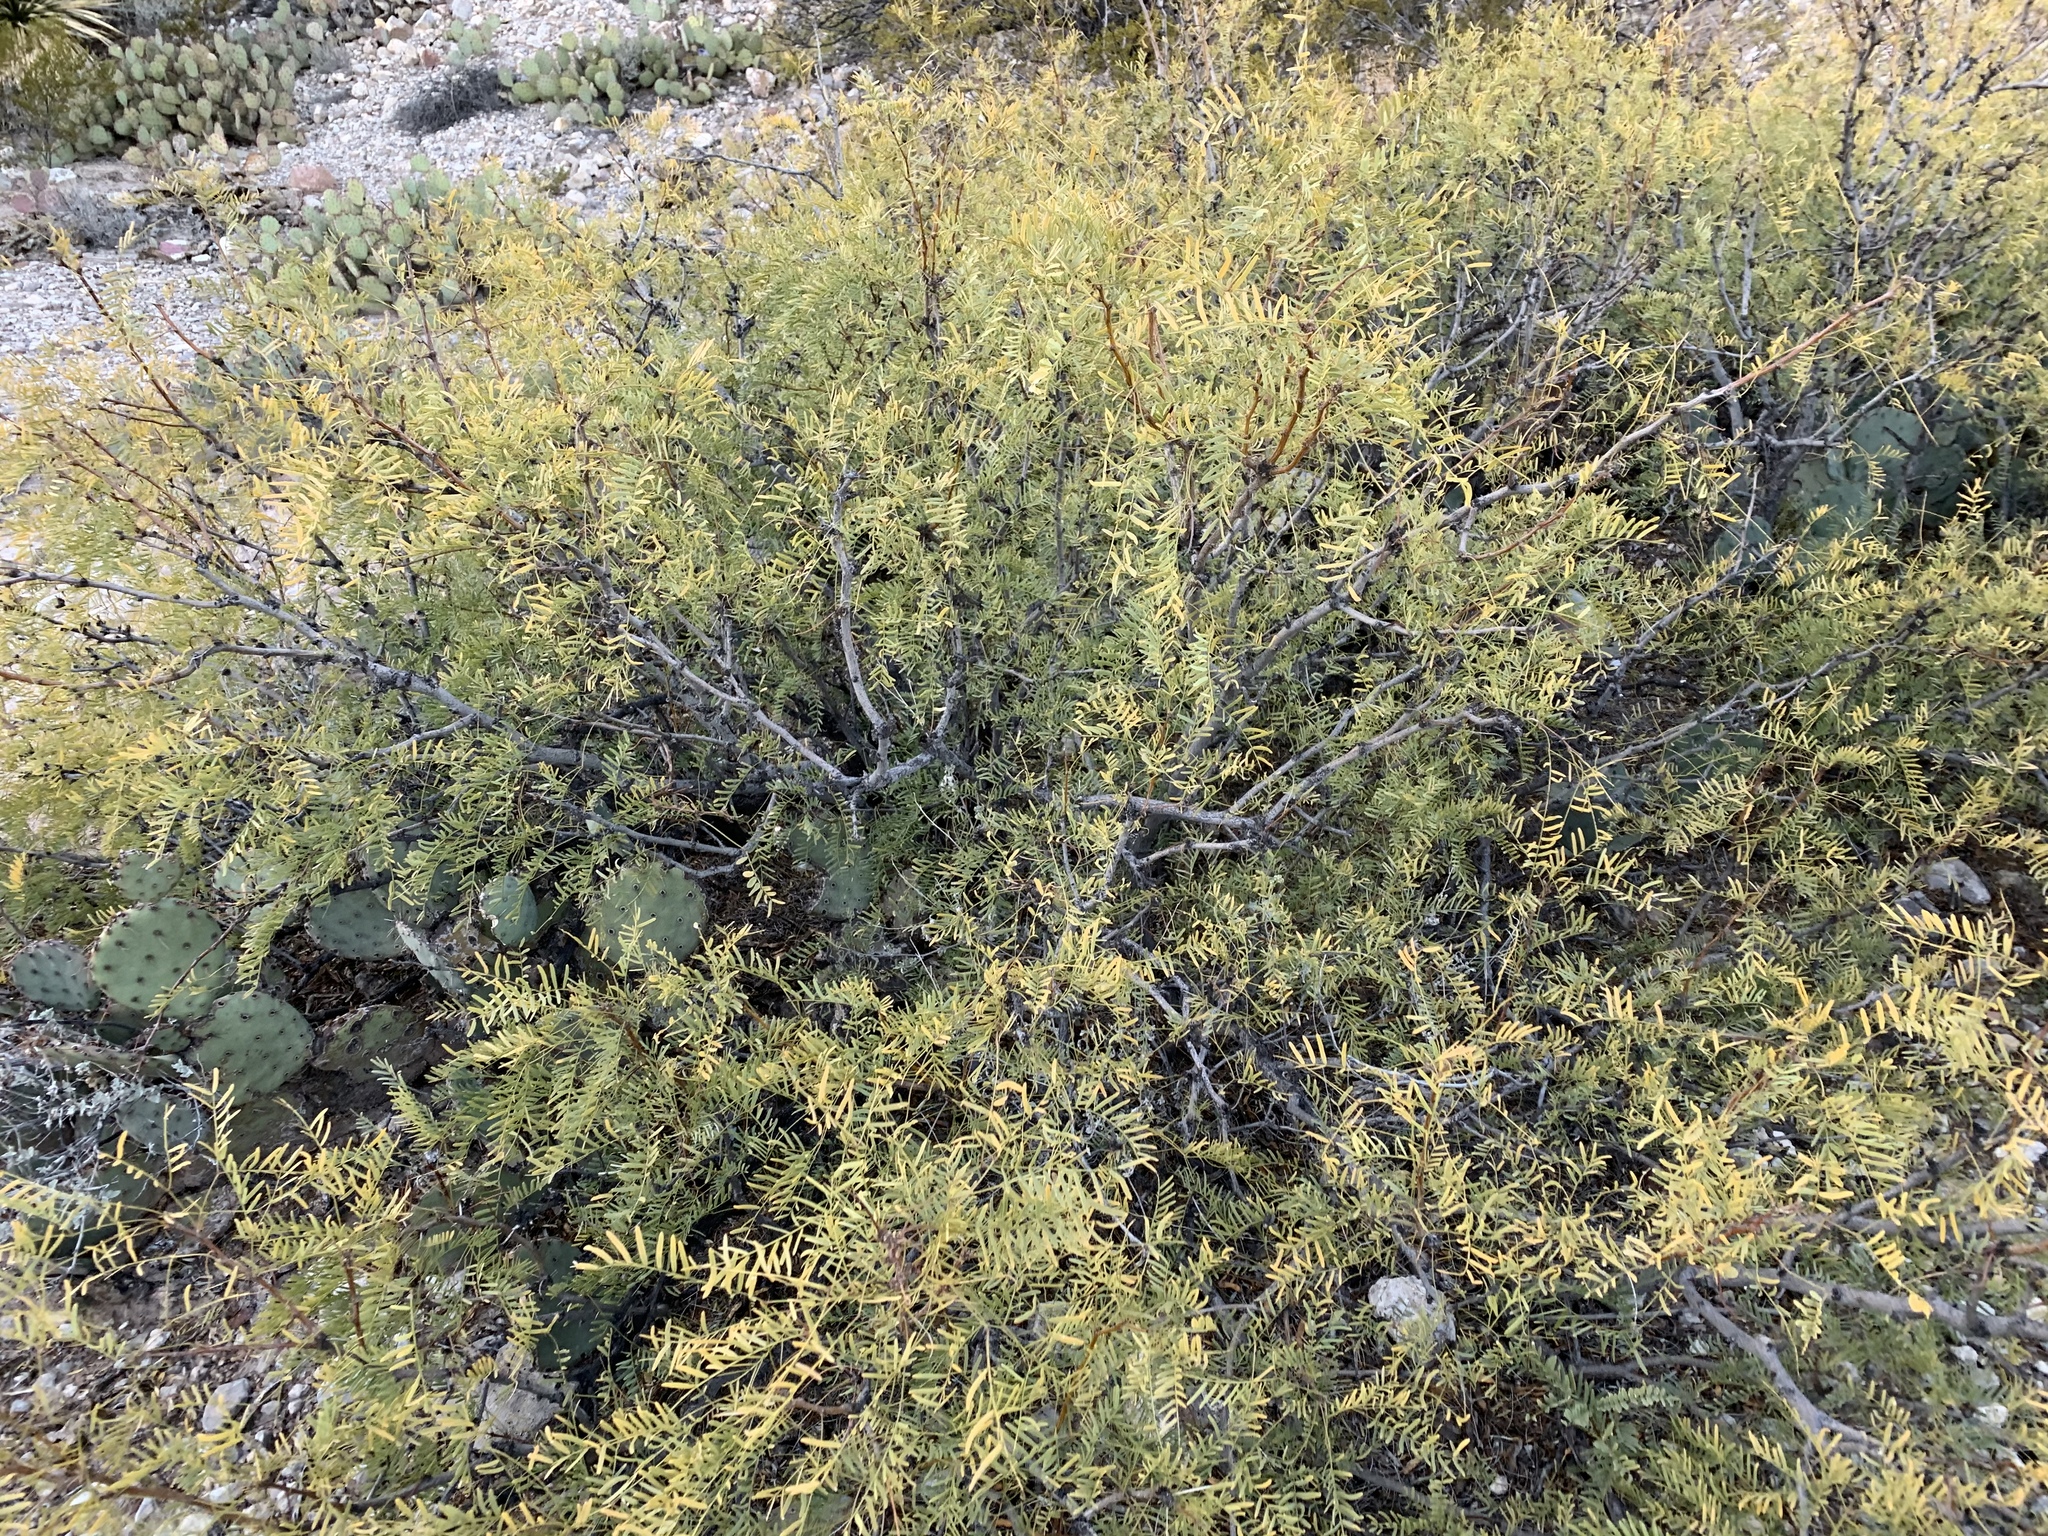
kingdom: Plantae
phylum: Tracheophyta
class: Magnoliopsida
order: Fabales
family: Fabaceae
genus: Prosopis
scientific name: Prosopis glandulosa
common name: Honey mesquite
